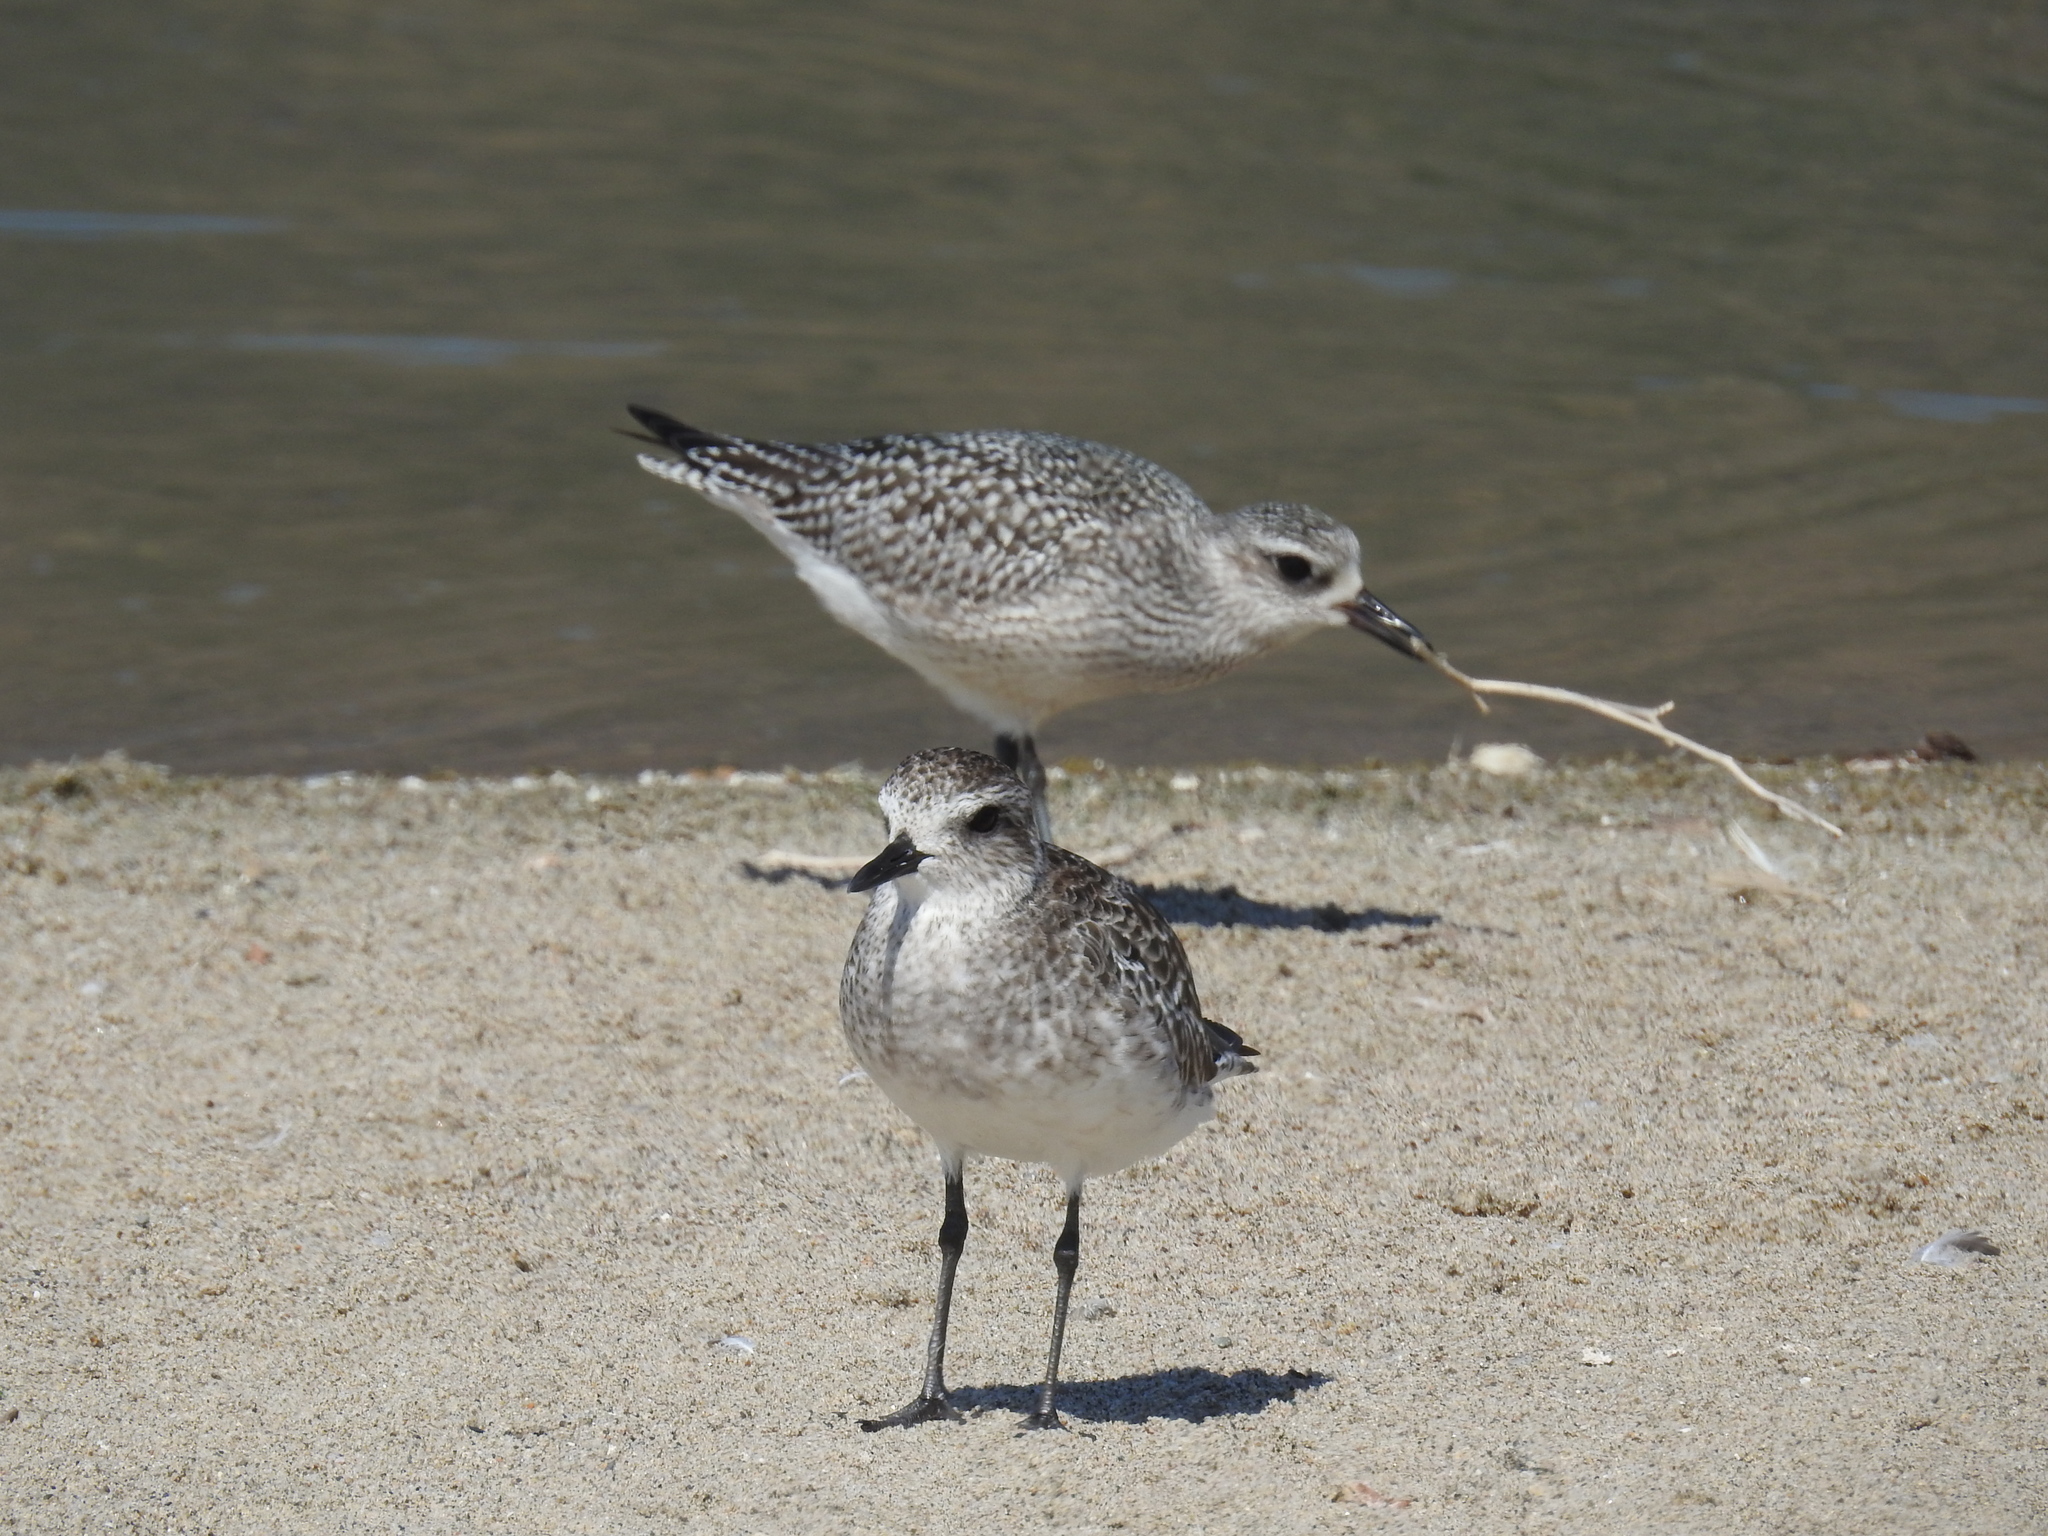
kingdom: Animalia
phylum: Chordata
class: Aves
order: Charadriiformes
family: Charadriidae
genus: Pluvialis
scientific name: Pluvialis squatarola
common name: Grey plover
